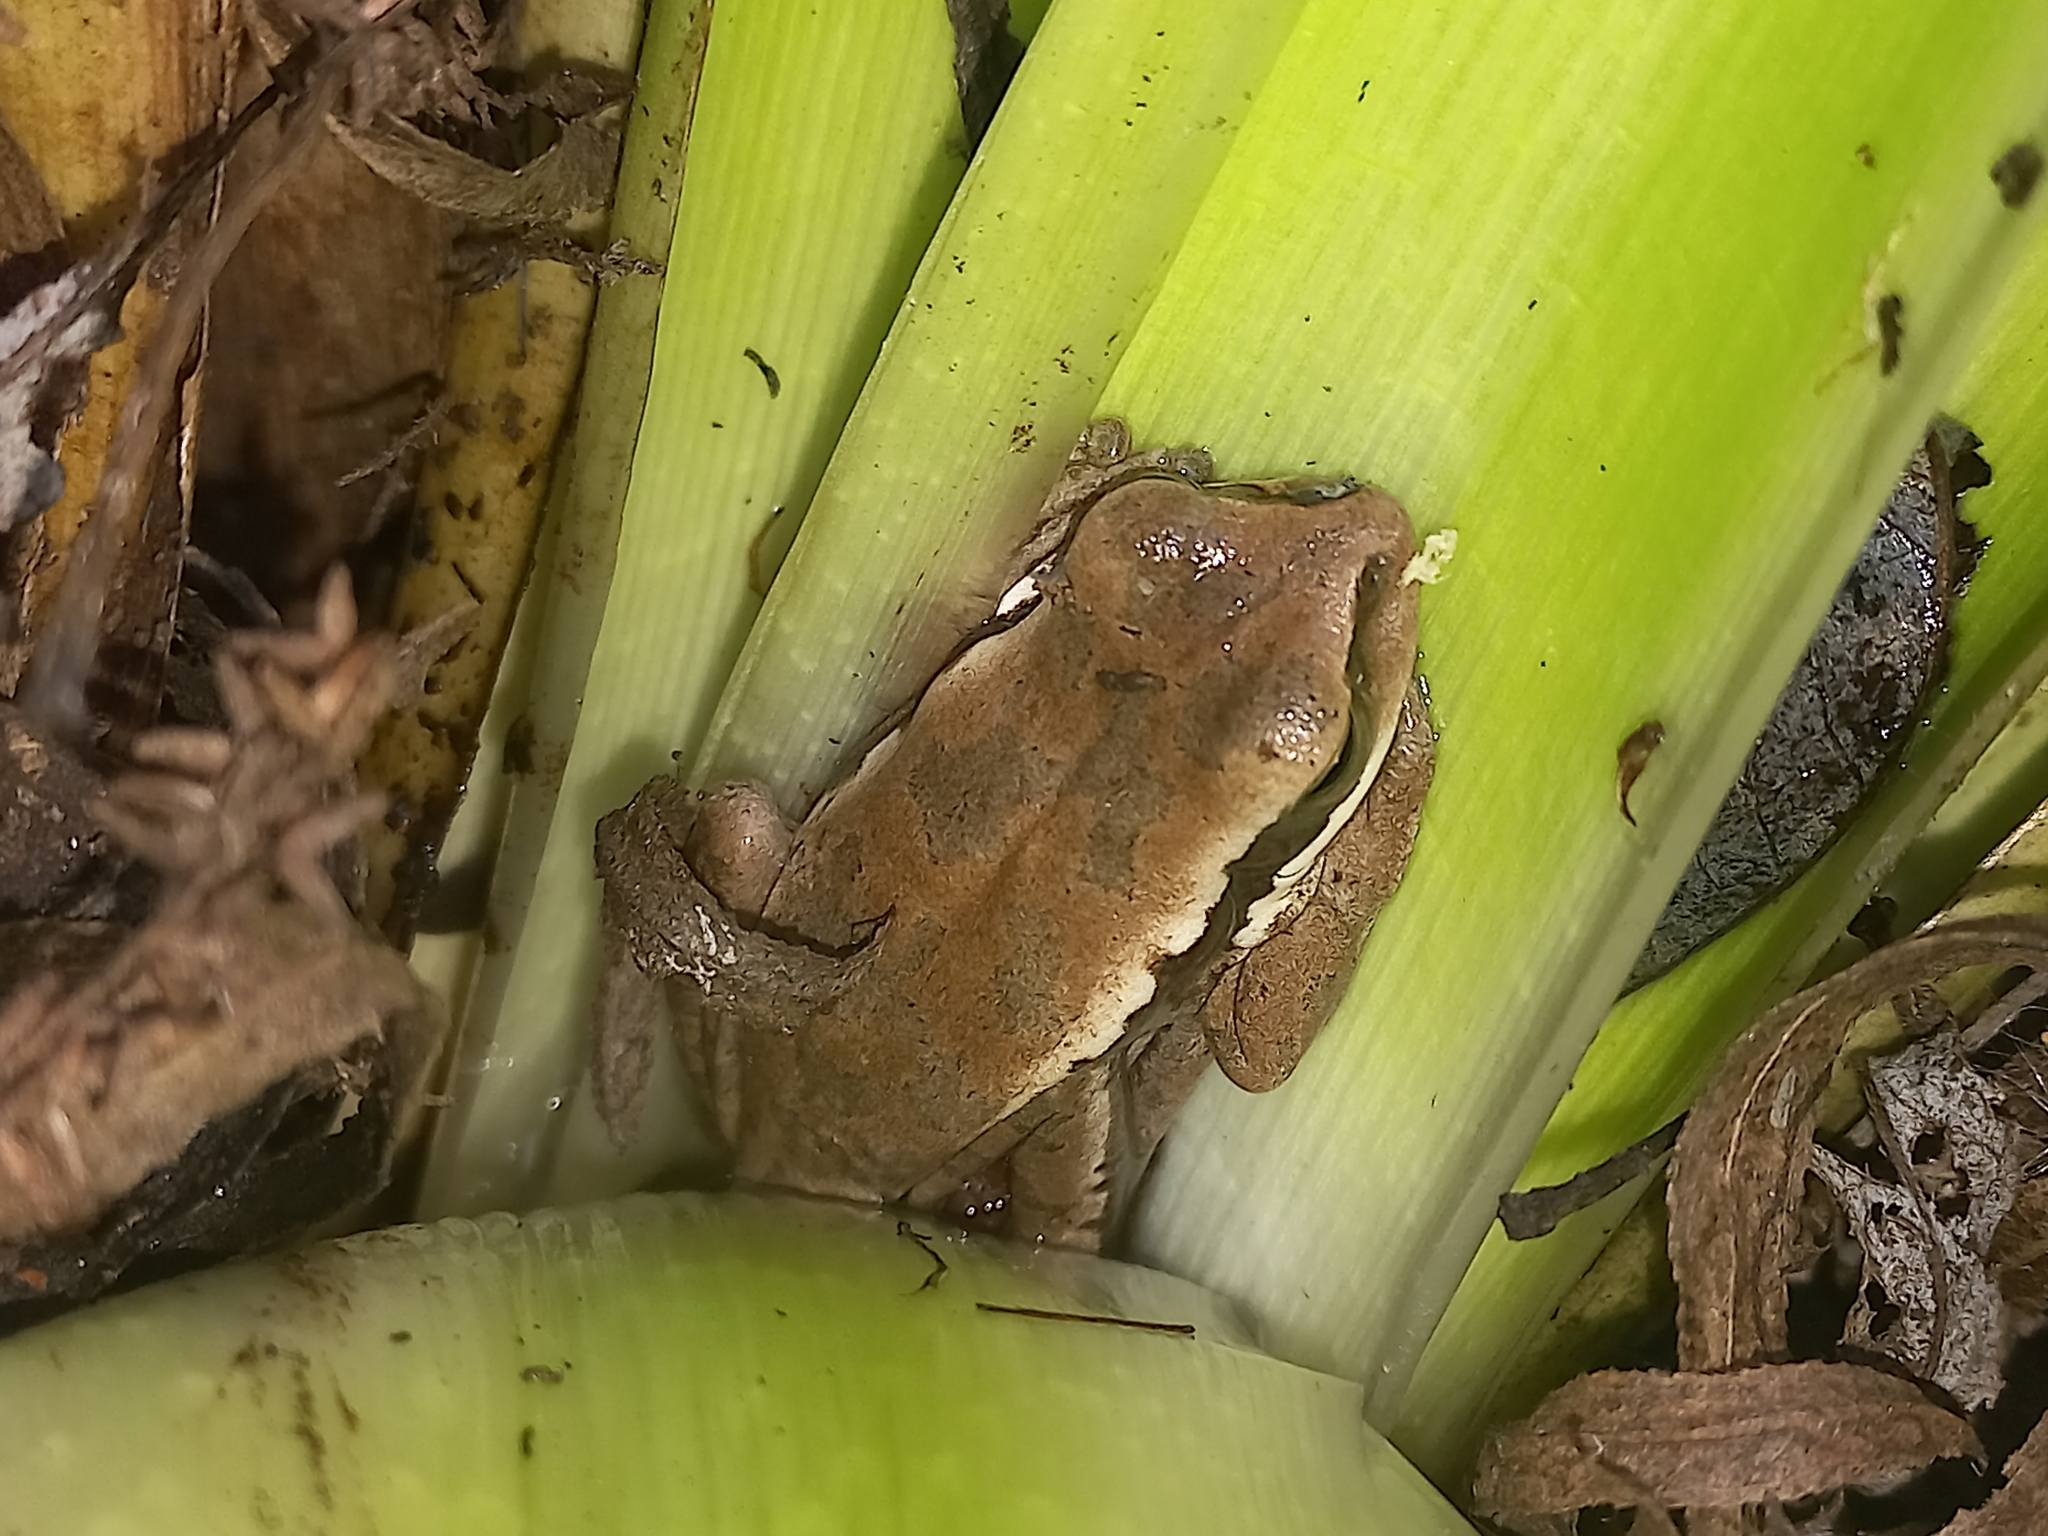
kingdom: Animalia
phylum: Chordata
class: Amphibia
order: Anura
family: Hylidae
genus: Boana
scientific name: Boana pulchella
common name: Montevideo treefrog
